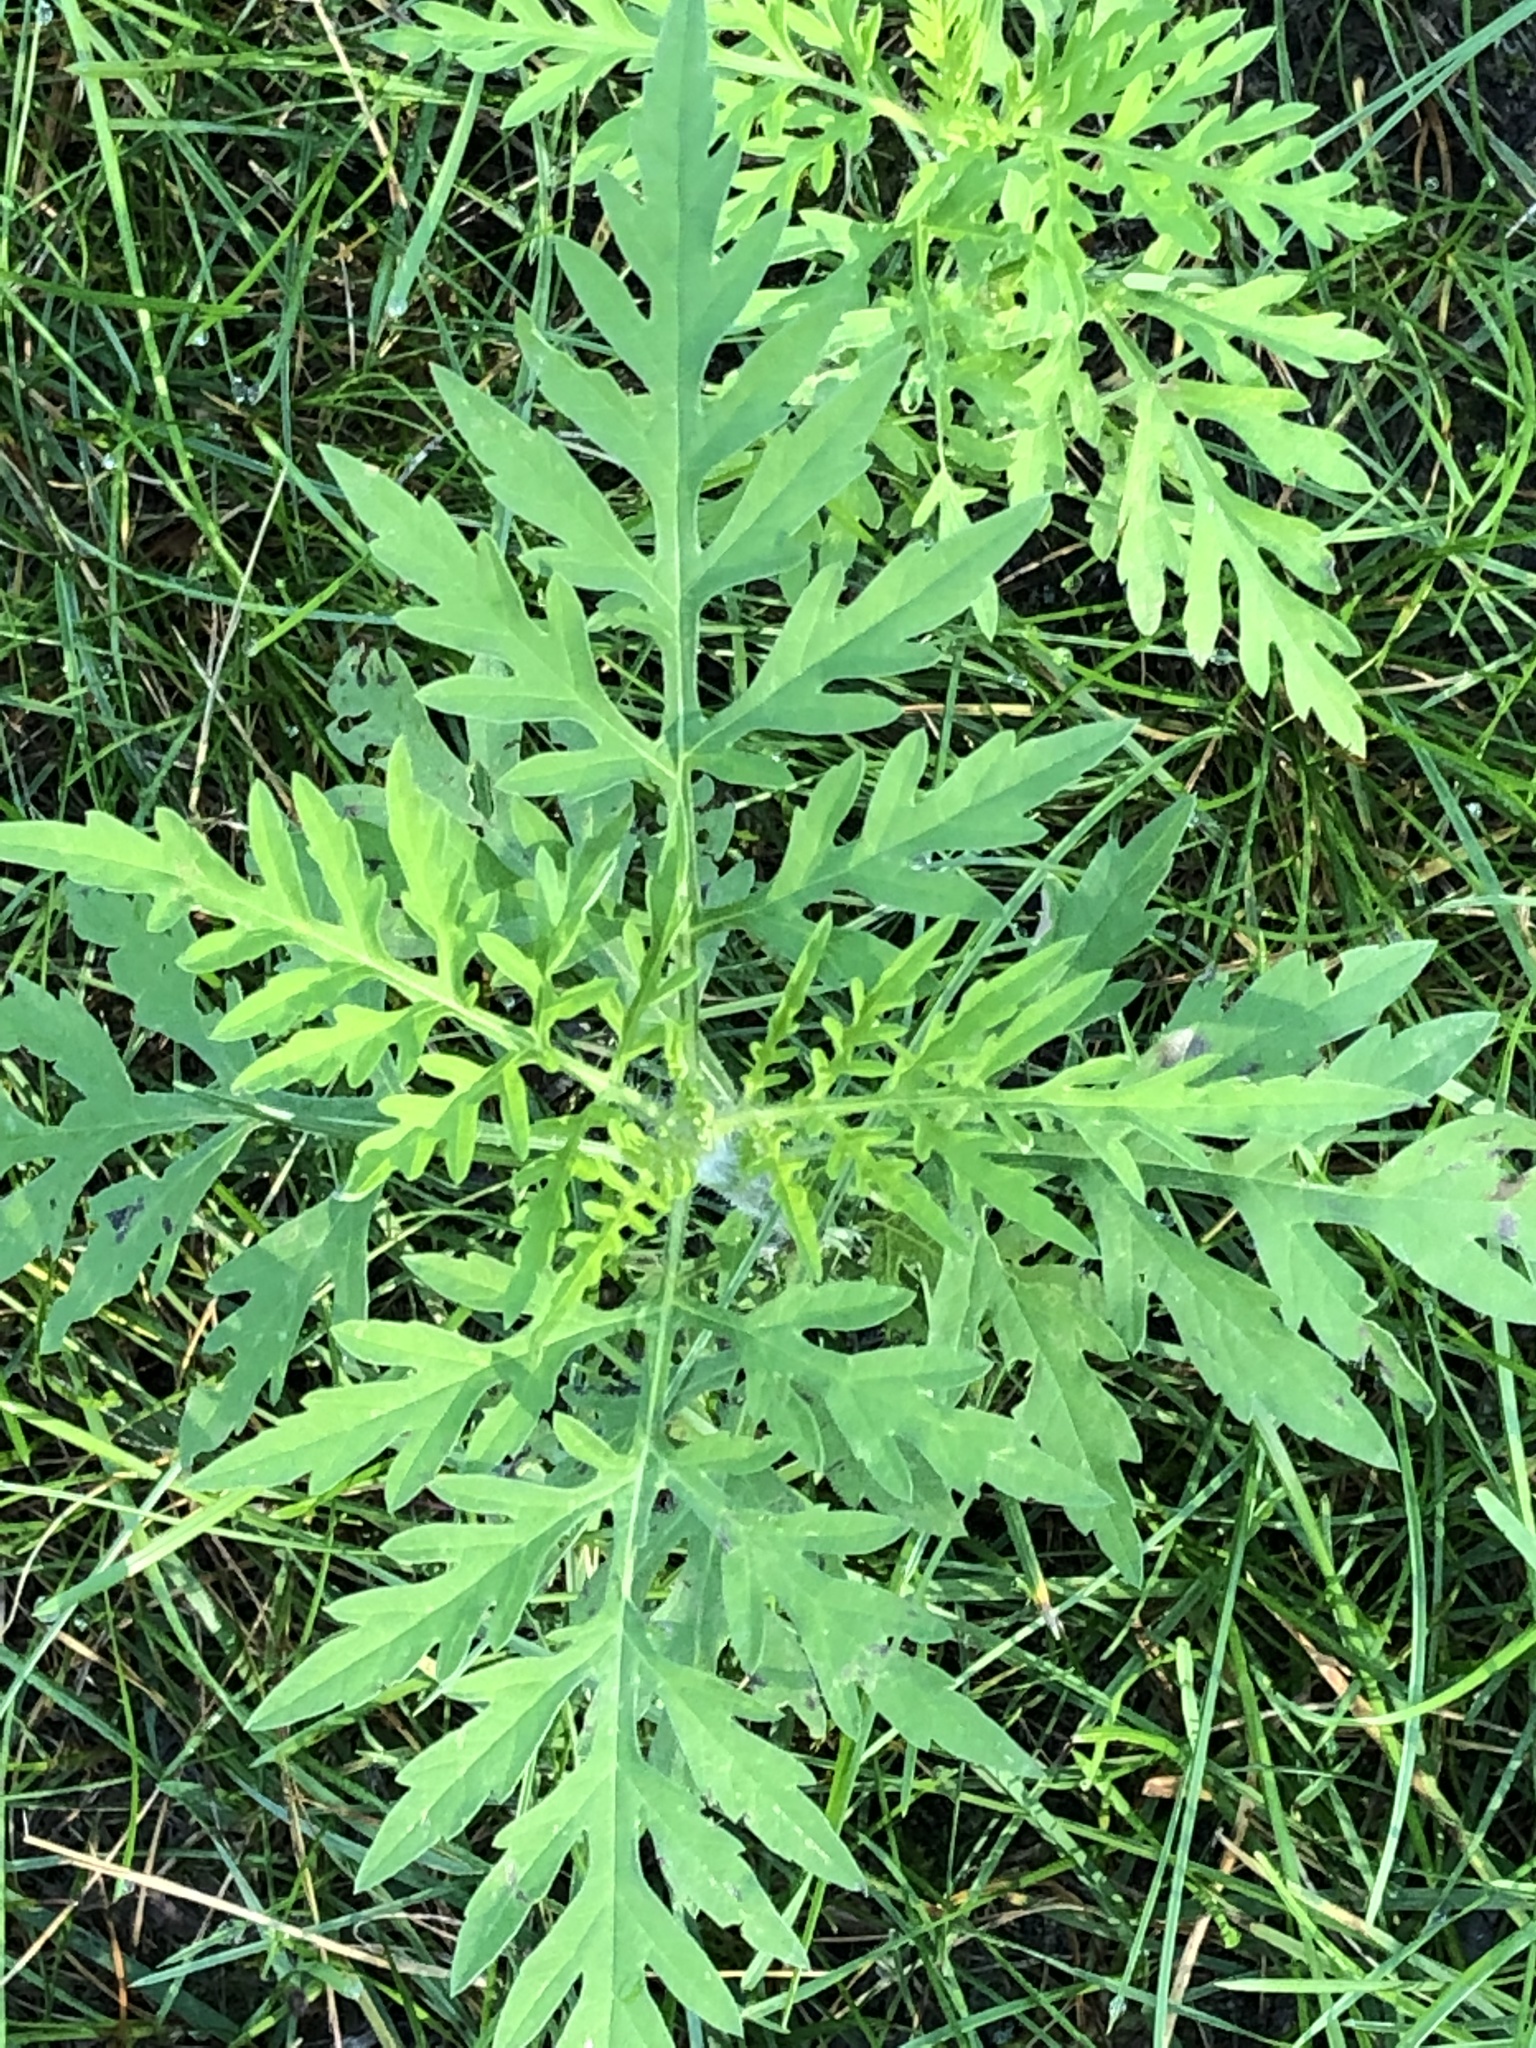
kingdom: Plantae
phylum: Tracheophyta
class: Magnoliopsida
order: Asterales
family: Asteraceae
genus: Ambrosia
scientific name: Ambrosia artemisiifolia
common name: Annual ragweed
